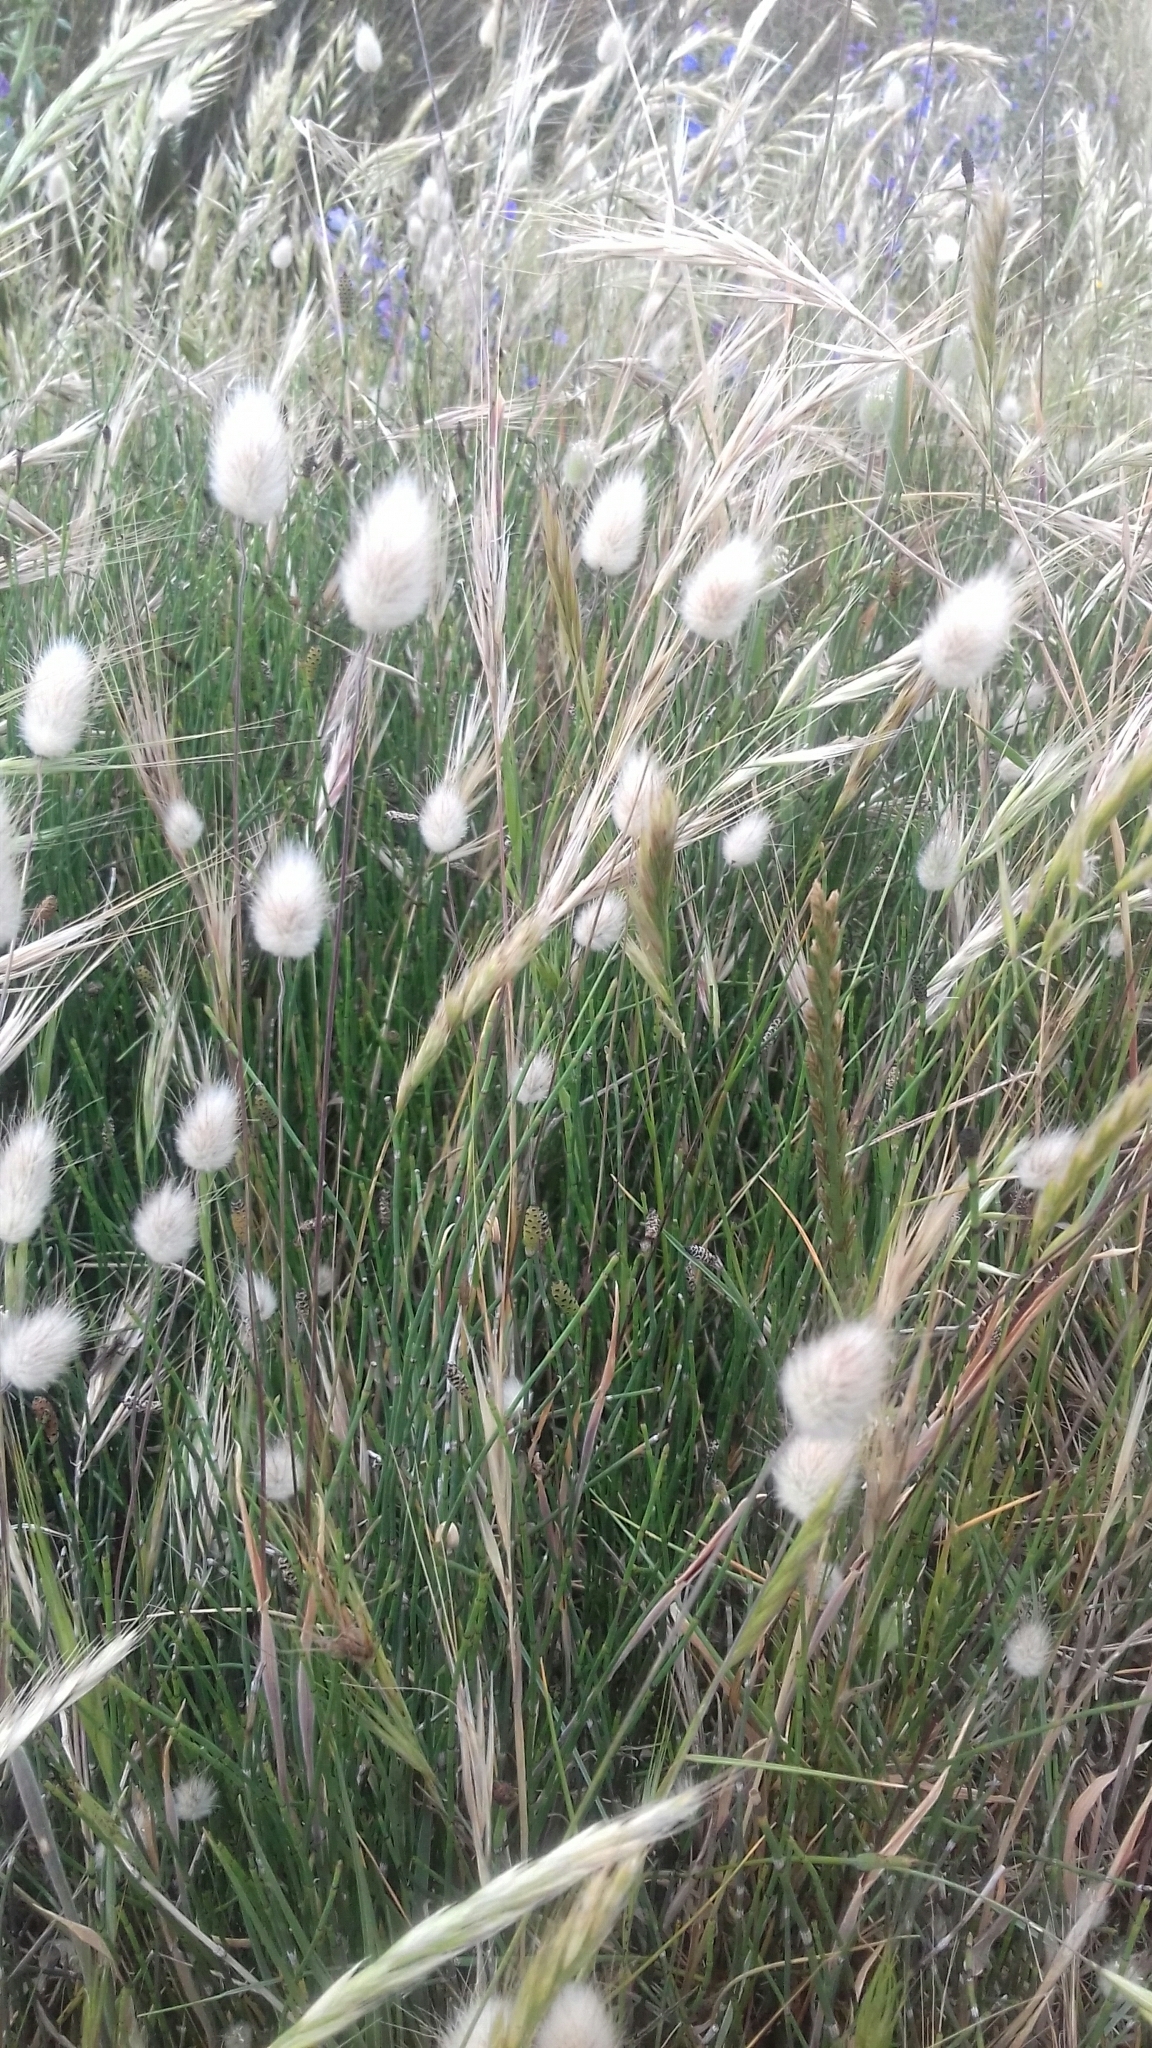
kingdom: Plantae
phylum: Tracheophyta
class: Liliopsida
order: Poales
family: Poaceae
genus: Lagurus
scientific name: Lagurus ovatus
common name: Hare's-tail
